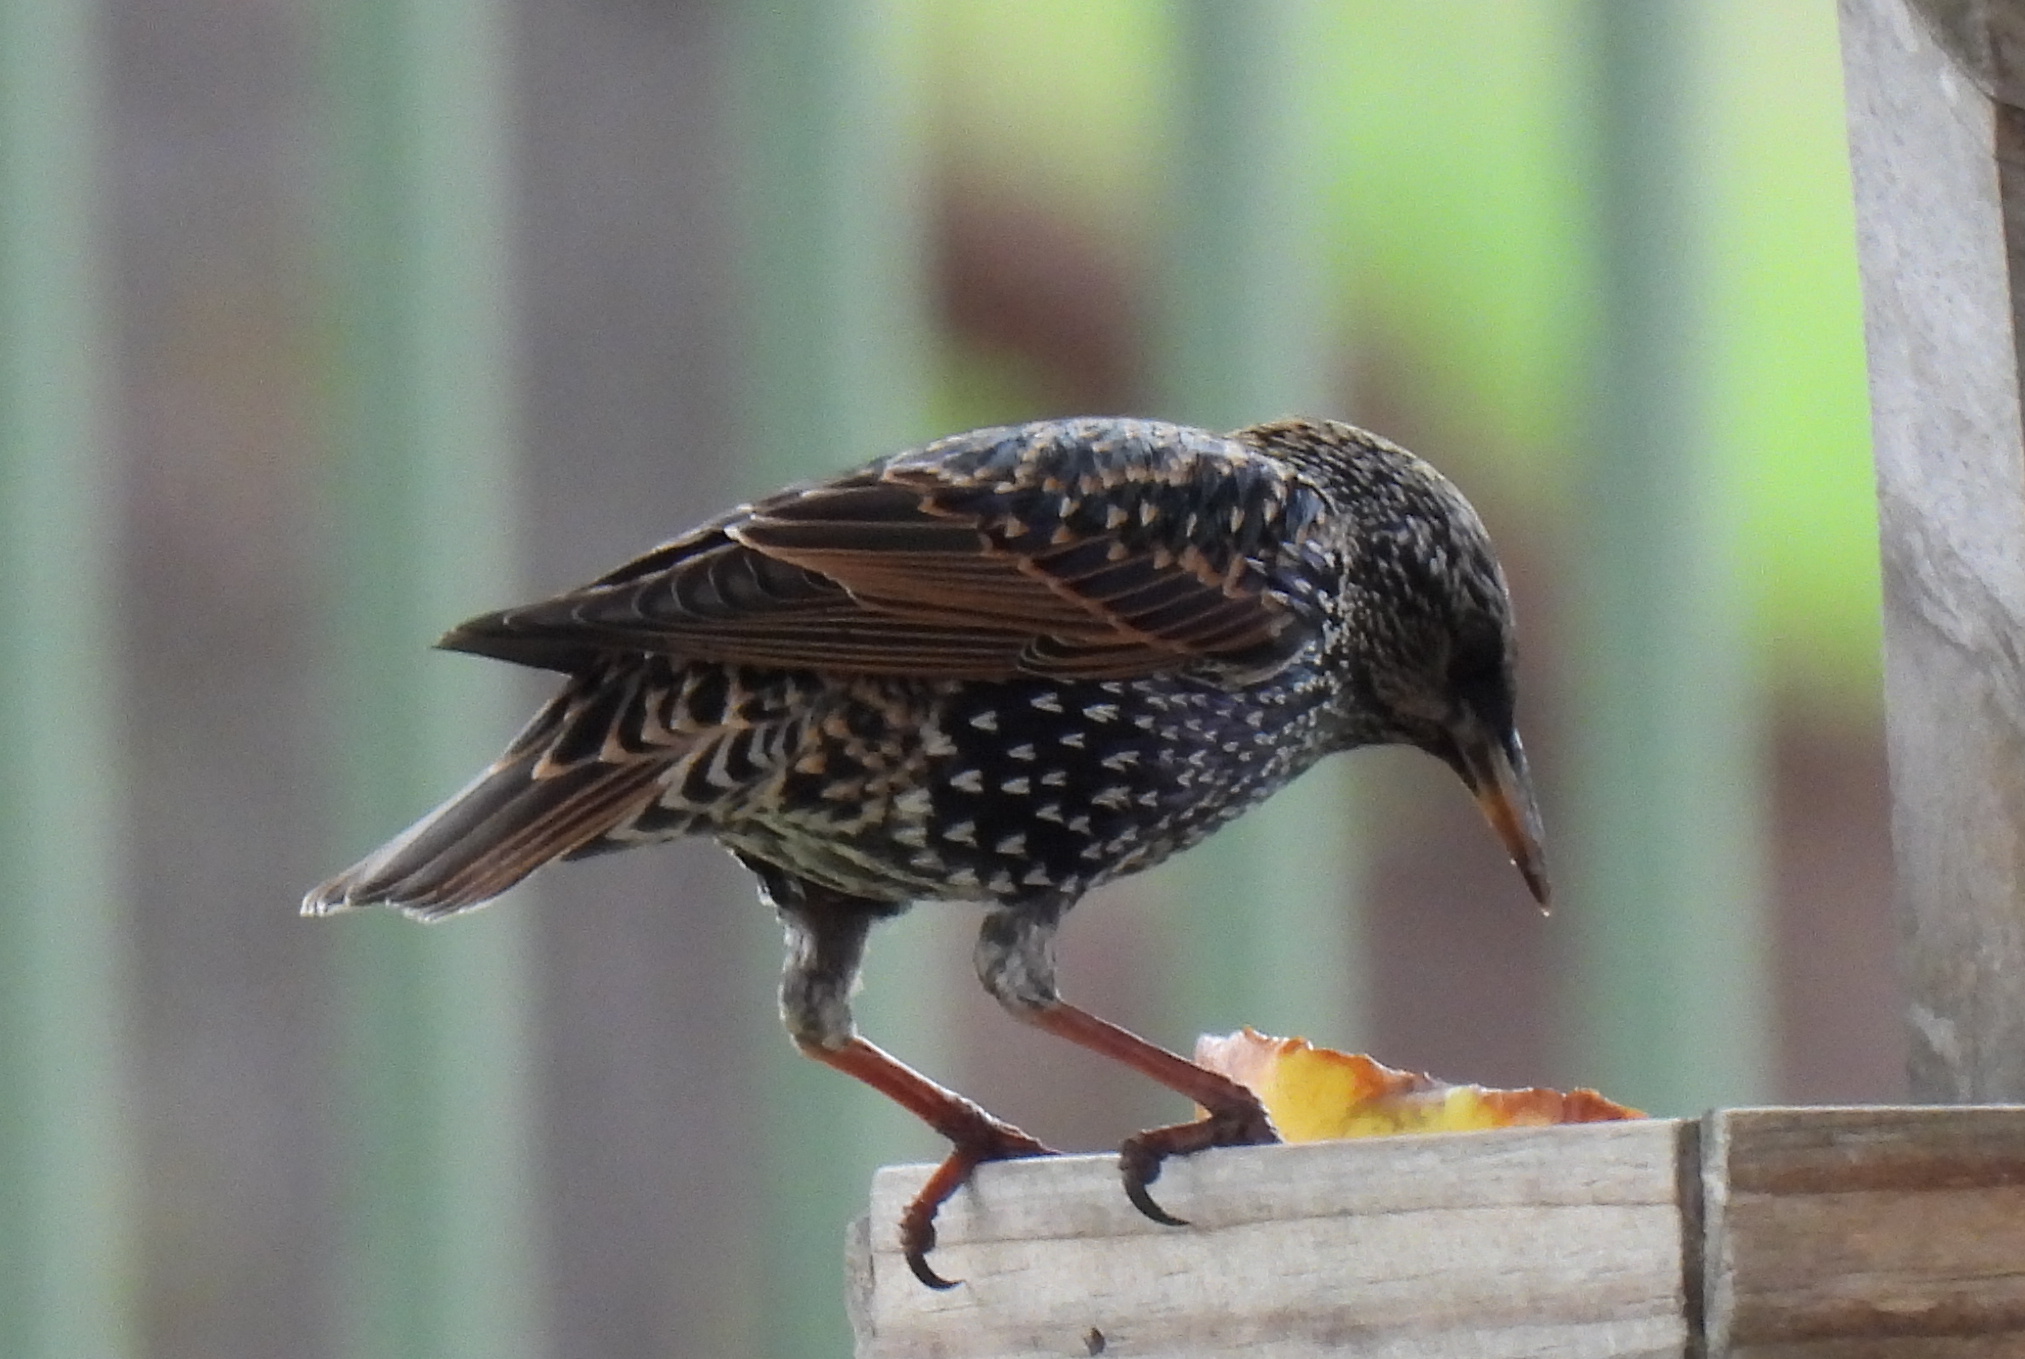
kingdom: Animalia
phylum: Chordata
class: Aves
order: Passeriformes
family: Sturnidae
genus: Sturnus
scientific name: Sturnus vulgaris
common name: Common starling
